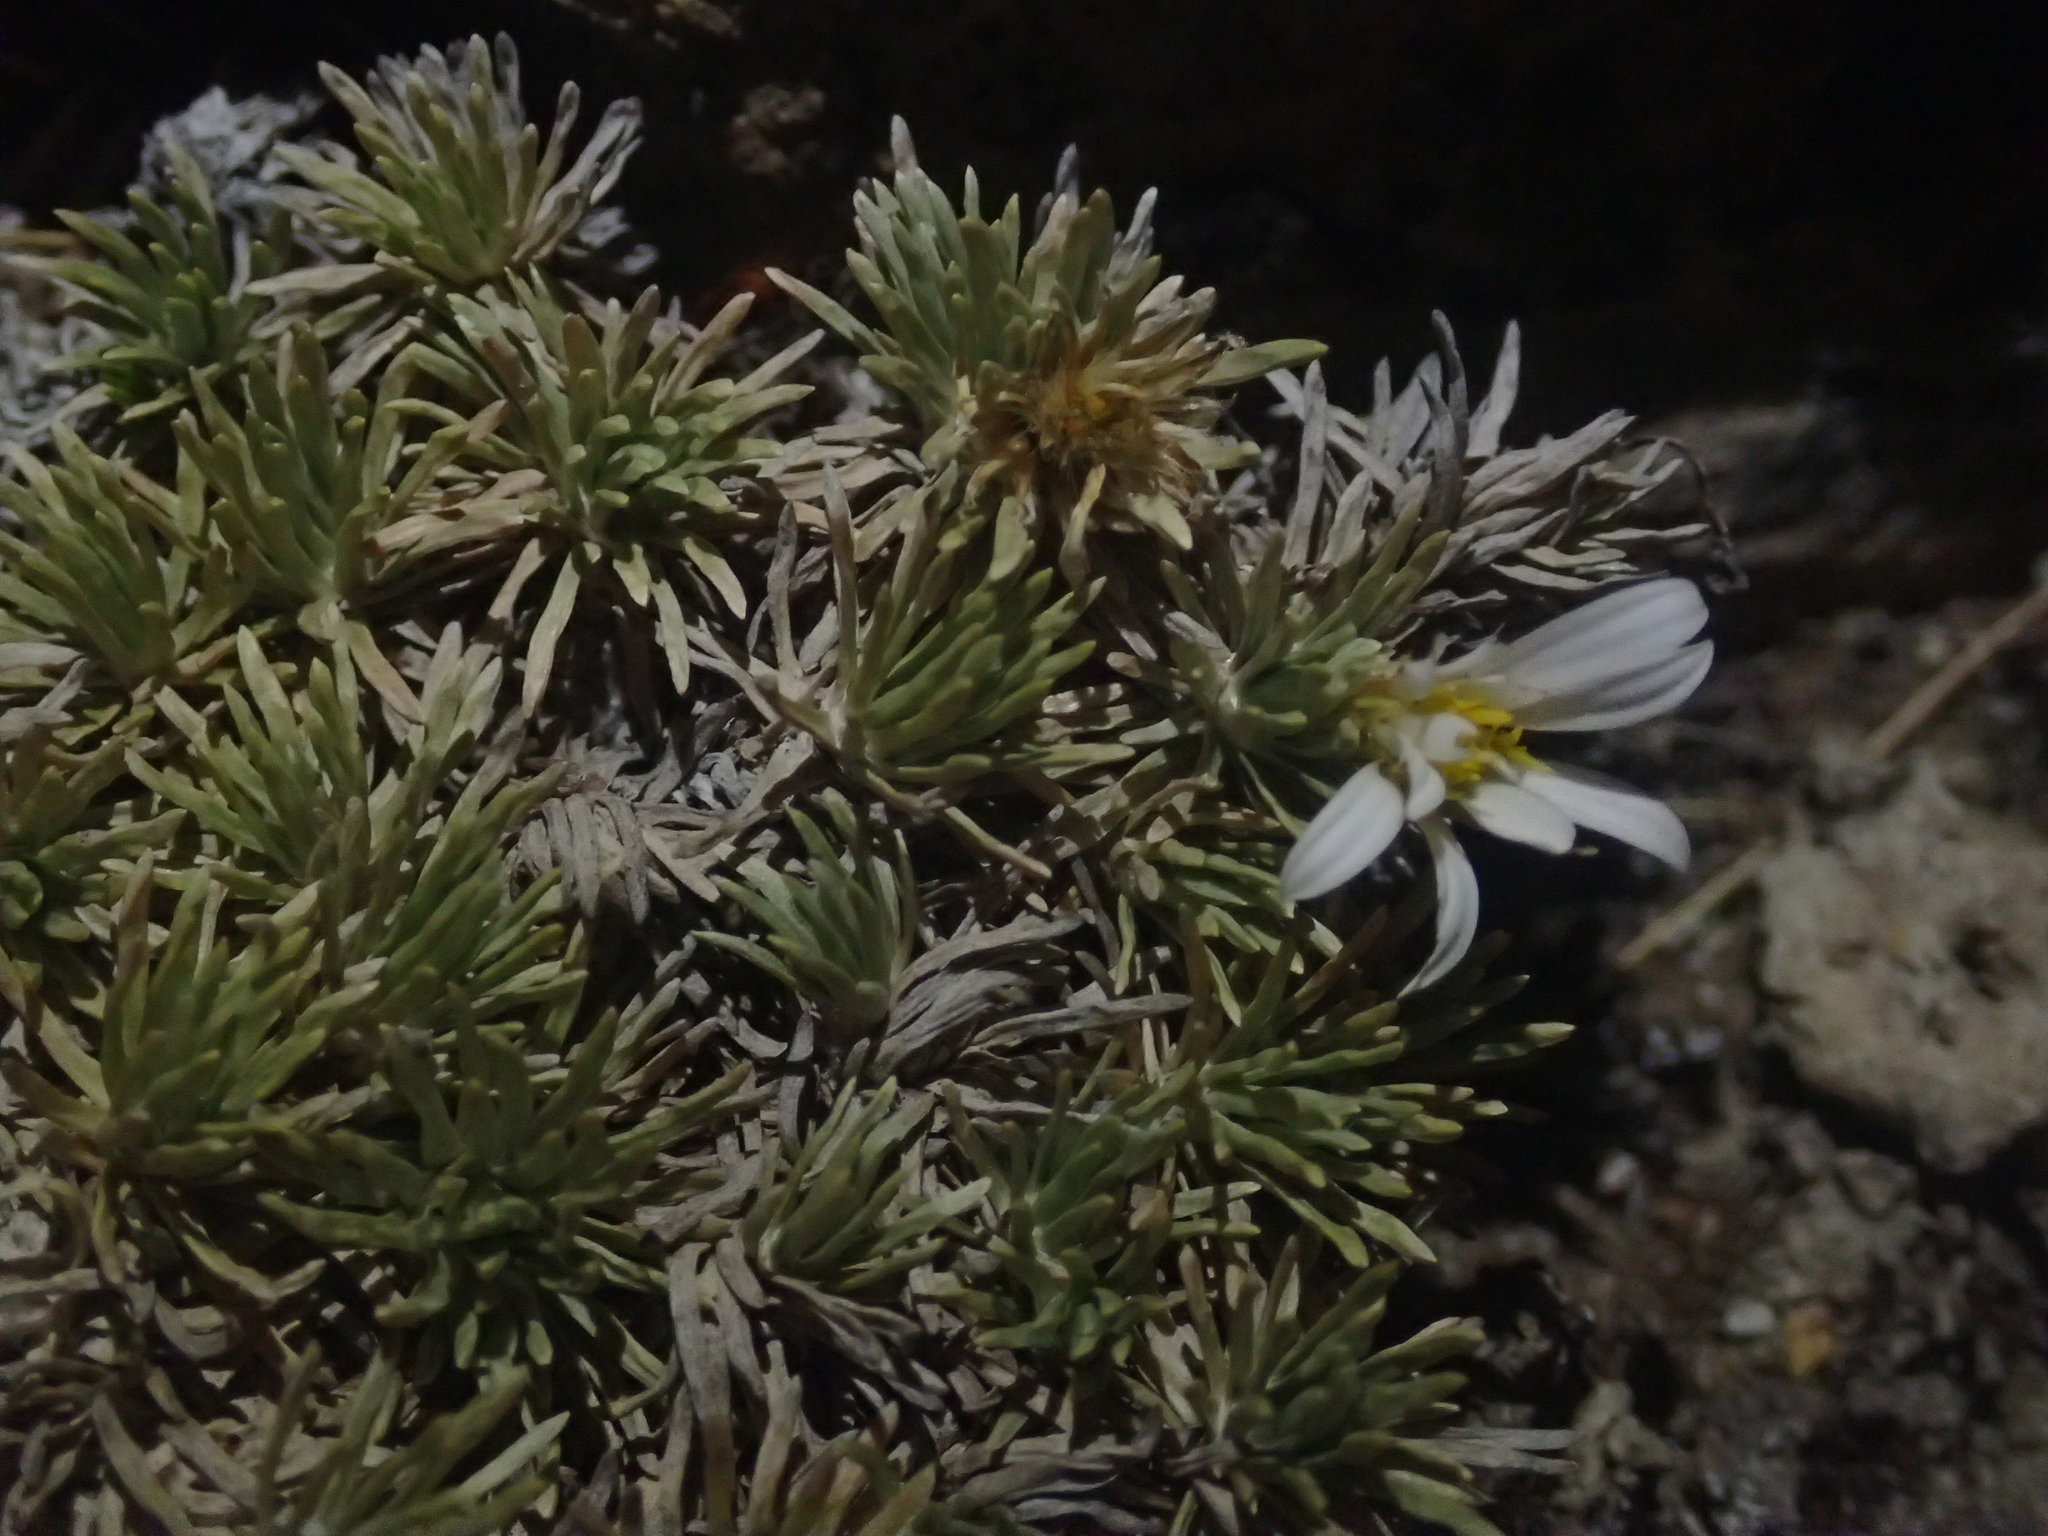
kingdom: Plantae
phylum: Tracheophyta
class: Magnoliopsida
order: Asterales
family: Asteraceae
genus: Celmisia
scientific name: Celmisia sessiliflora
